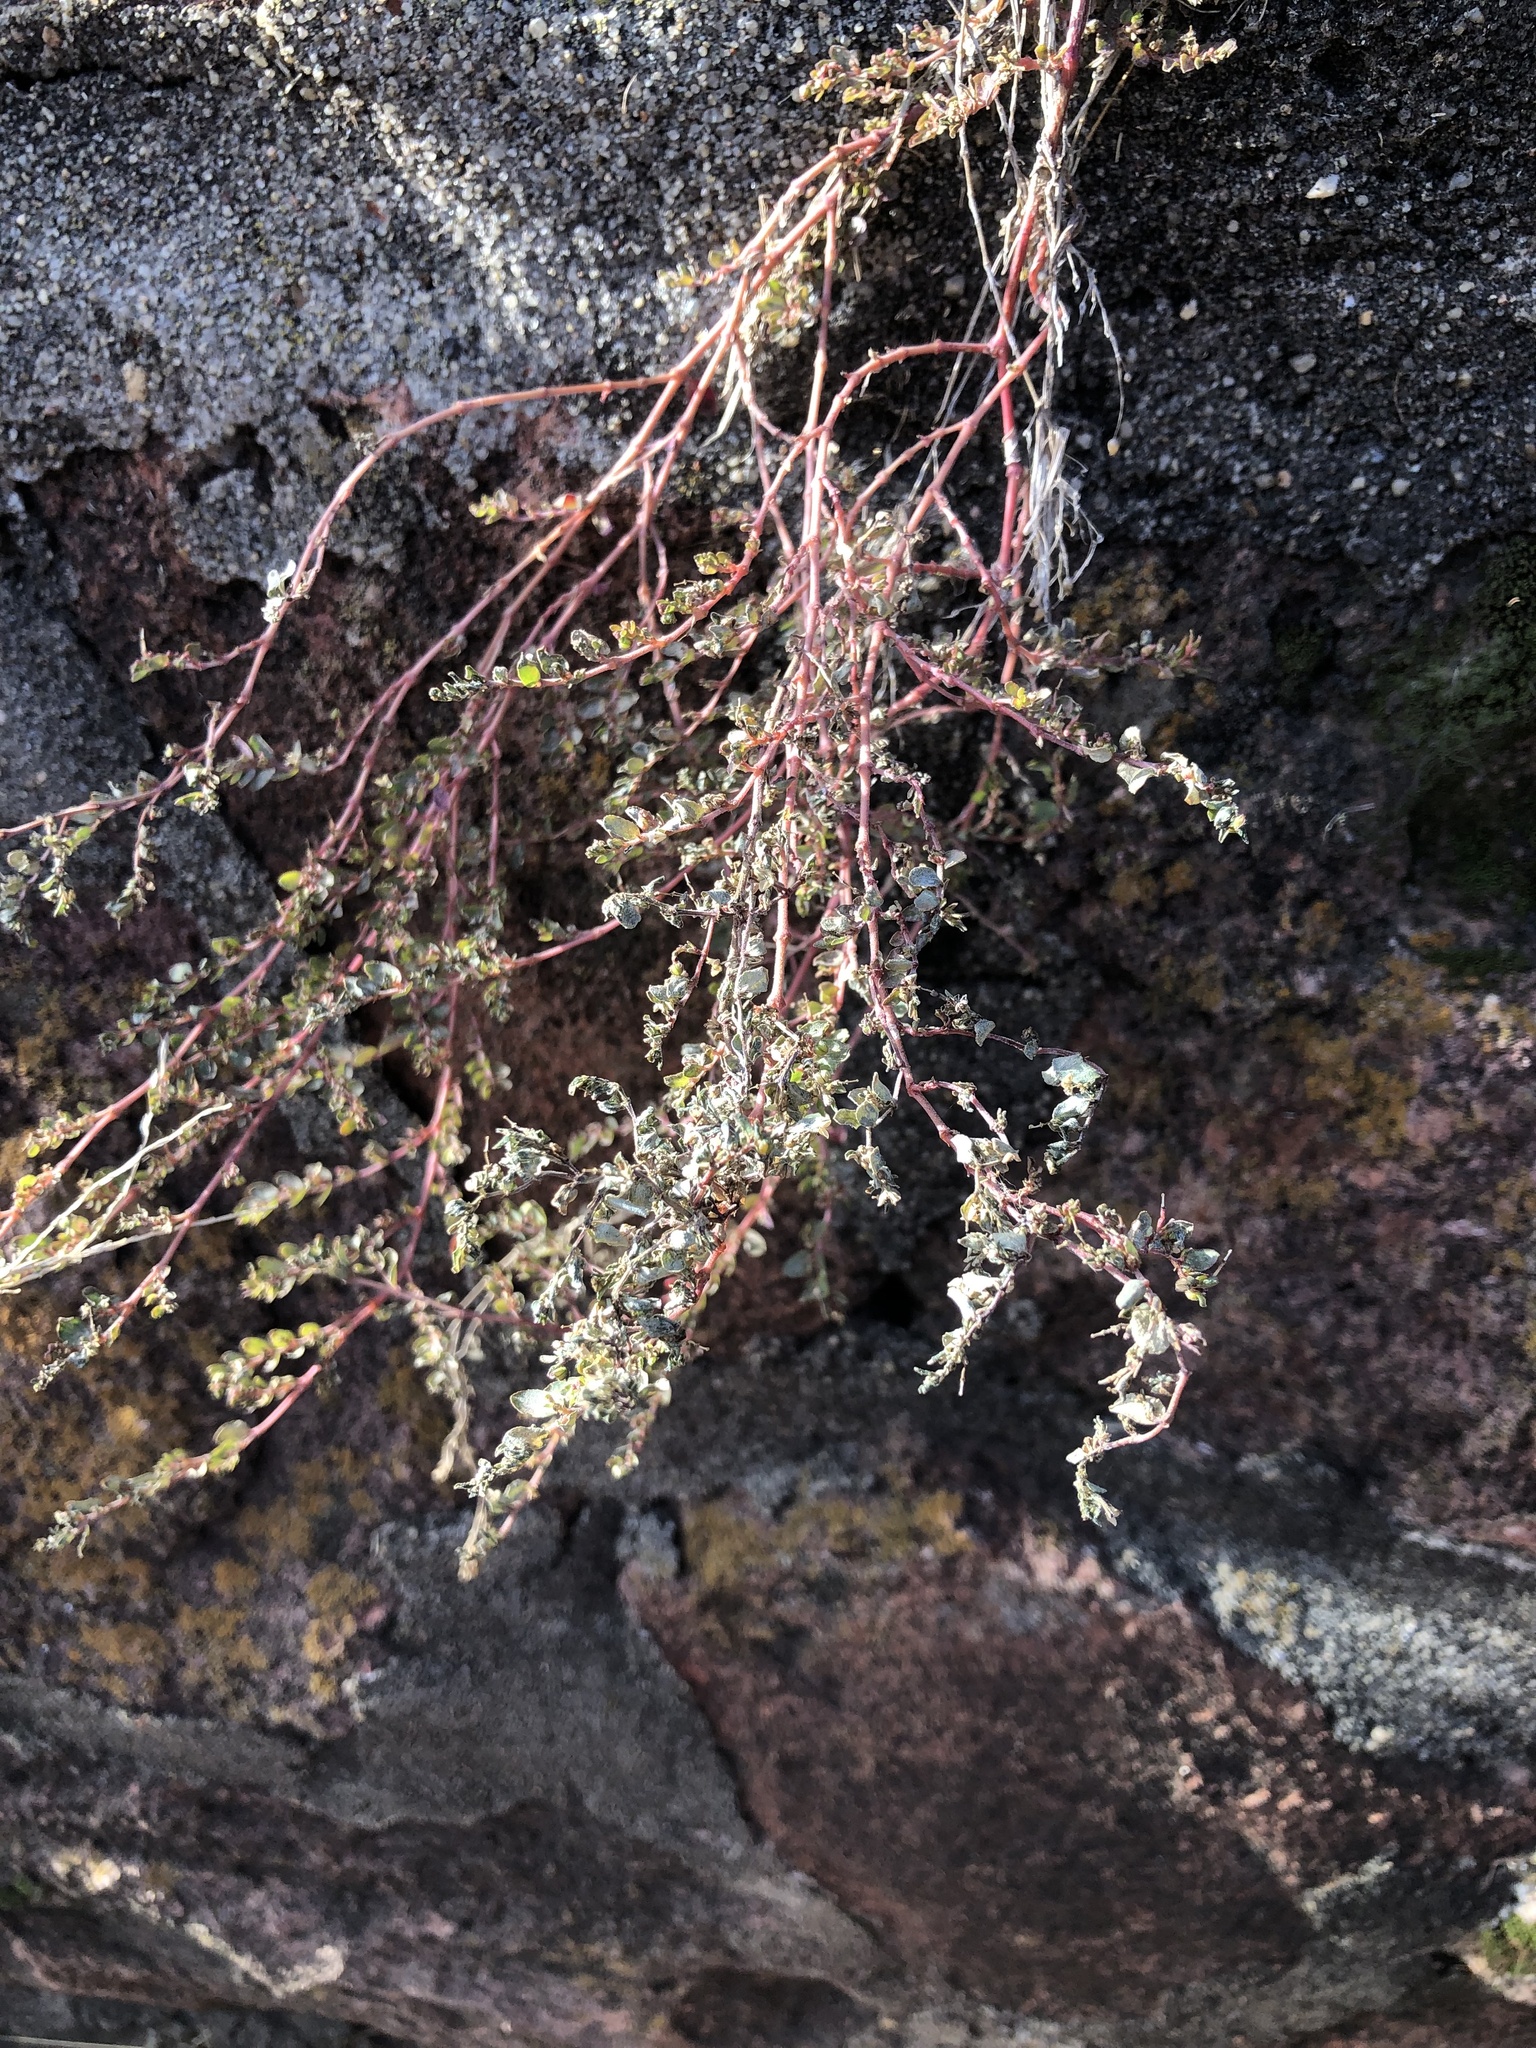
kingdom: Plantae
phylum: Tracheophyta
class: Magnoliopsida
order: Malpighiales
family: Euphorbiaceae
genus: Euphorbia
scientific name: Euphorbia prostrata
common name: Prostrate sandmat
